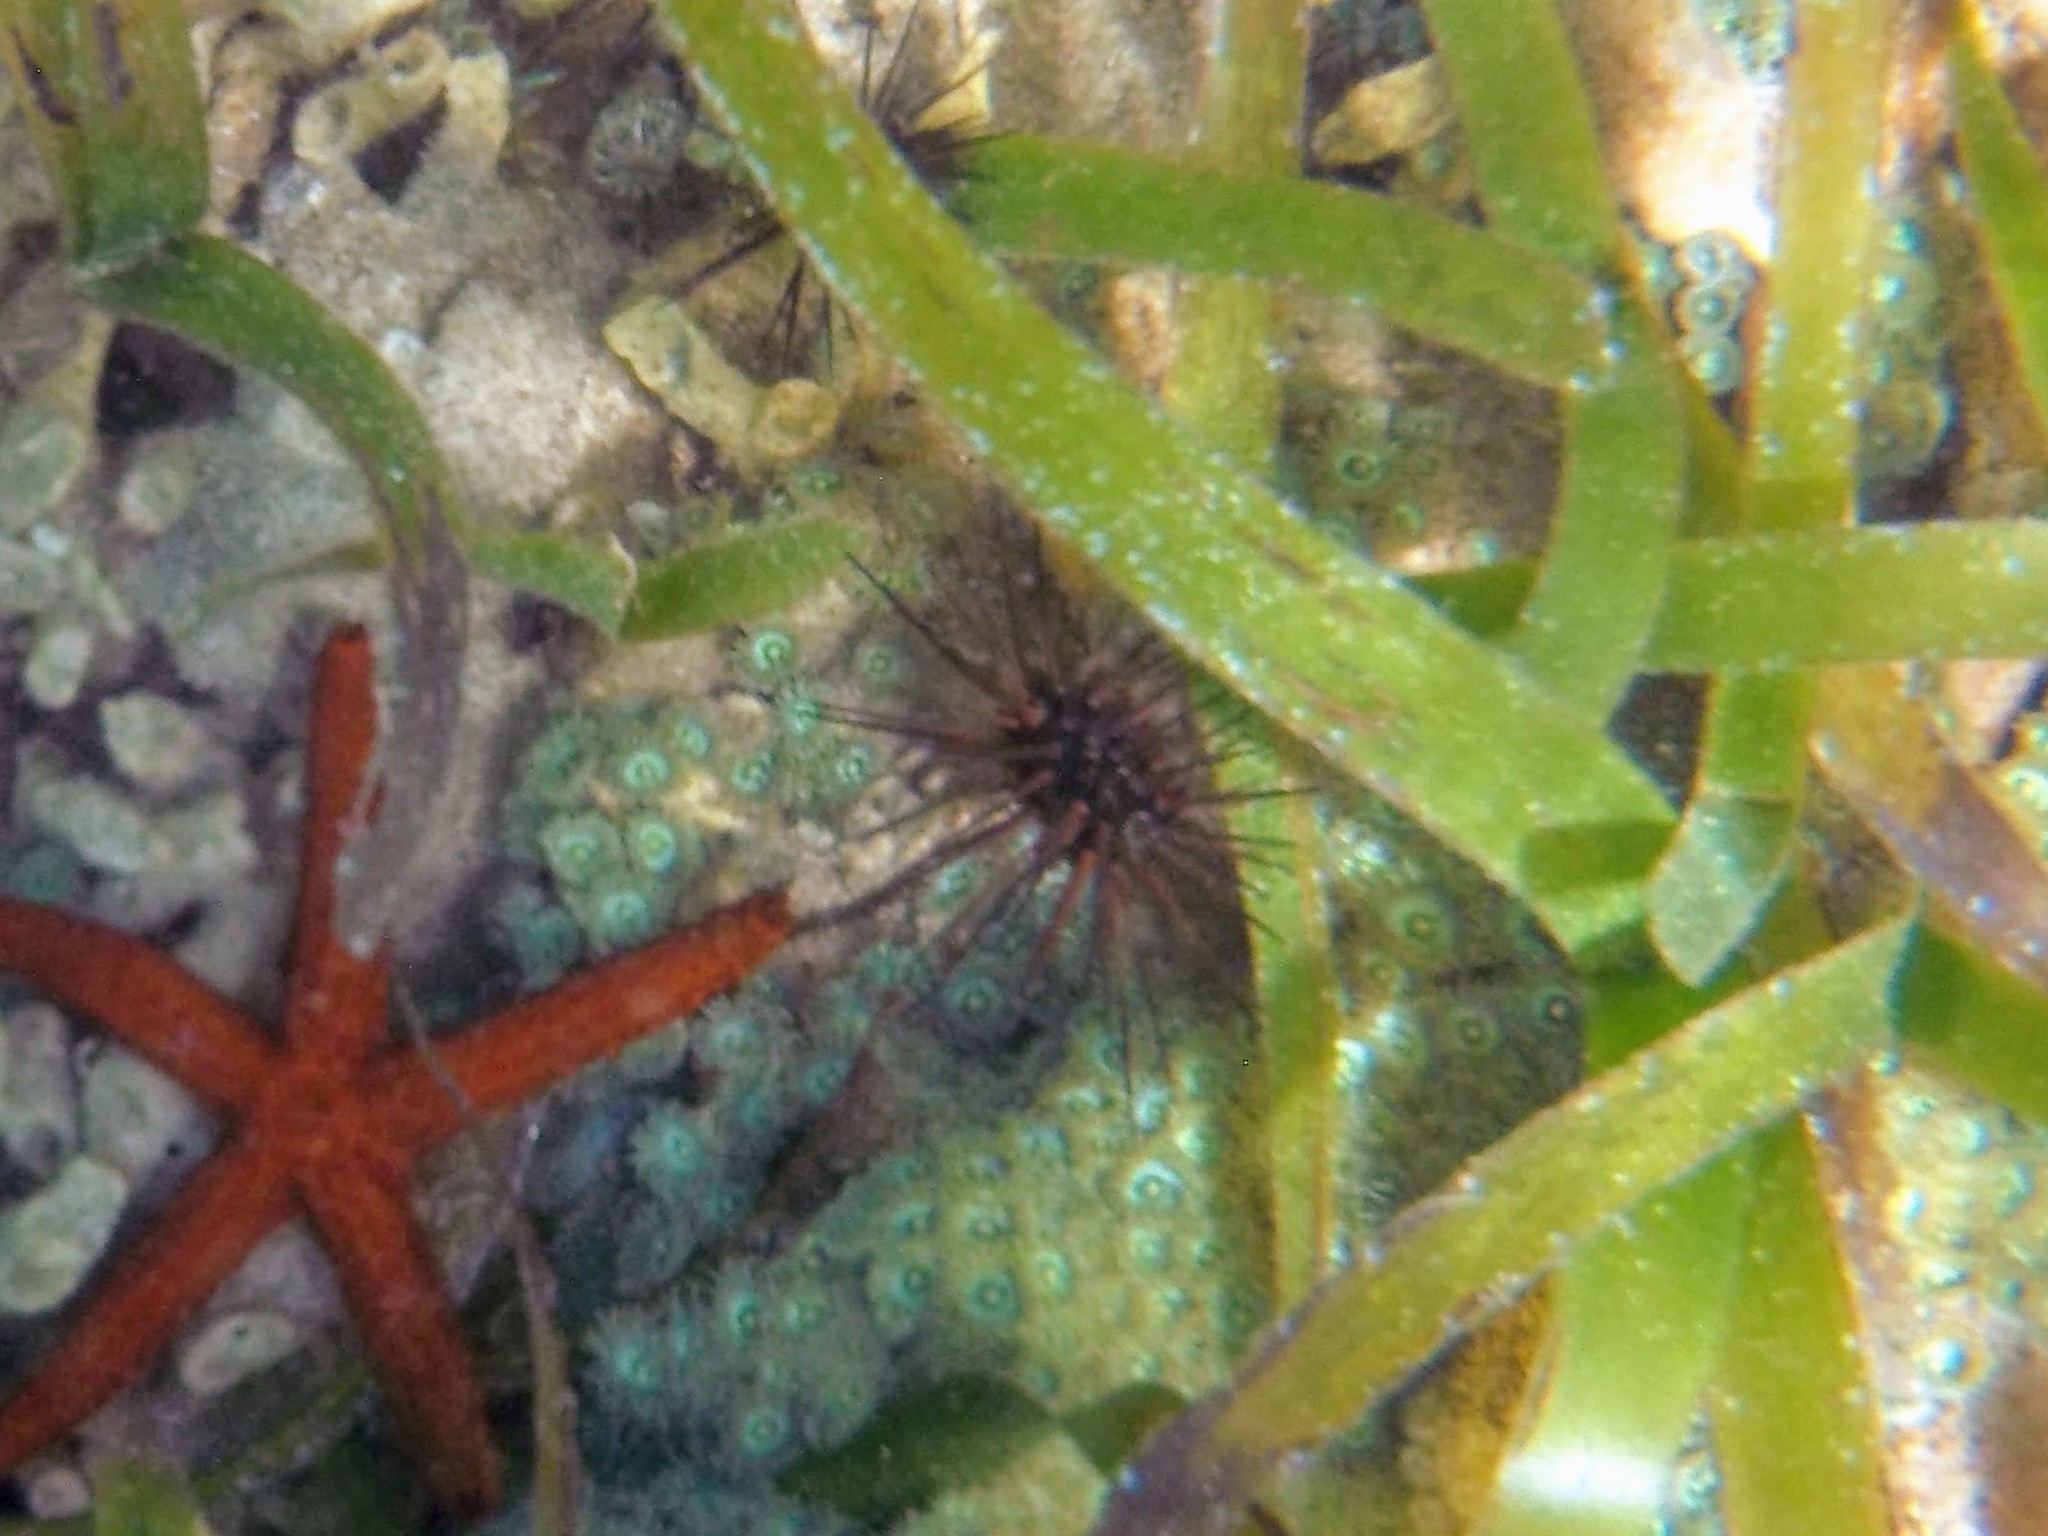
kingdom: Animalia
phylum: Echinodermata
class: Echinoidea
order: Camarodonta
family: Echinometridae
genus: Echinometra
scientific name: Echinometra viridis
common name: Reef urchin
